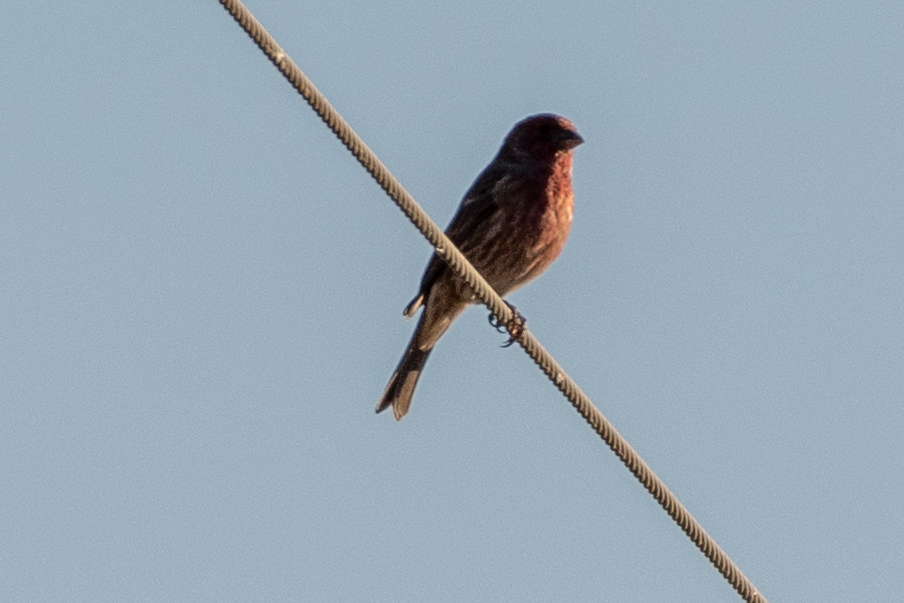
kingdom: Animalia
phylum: Chordata
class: Aves
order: Passeriformes
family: Fringillidae
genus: Haemorhous
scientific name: Haemorhous mexicanus
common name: House finch
